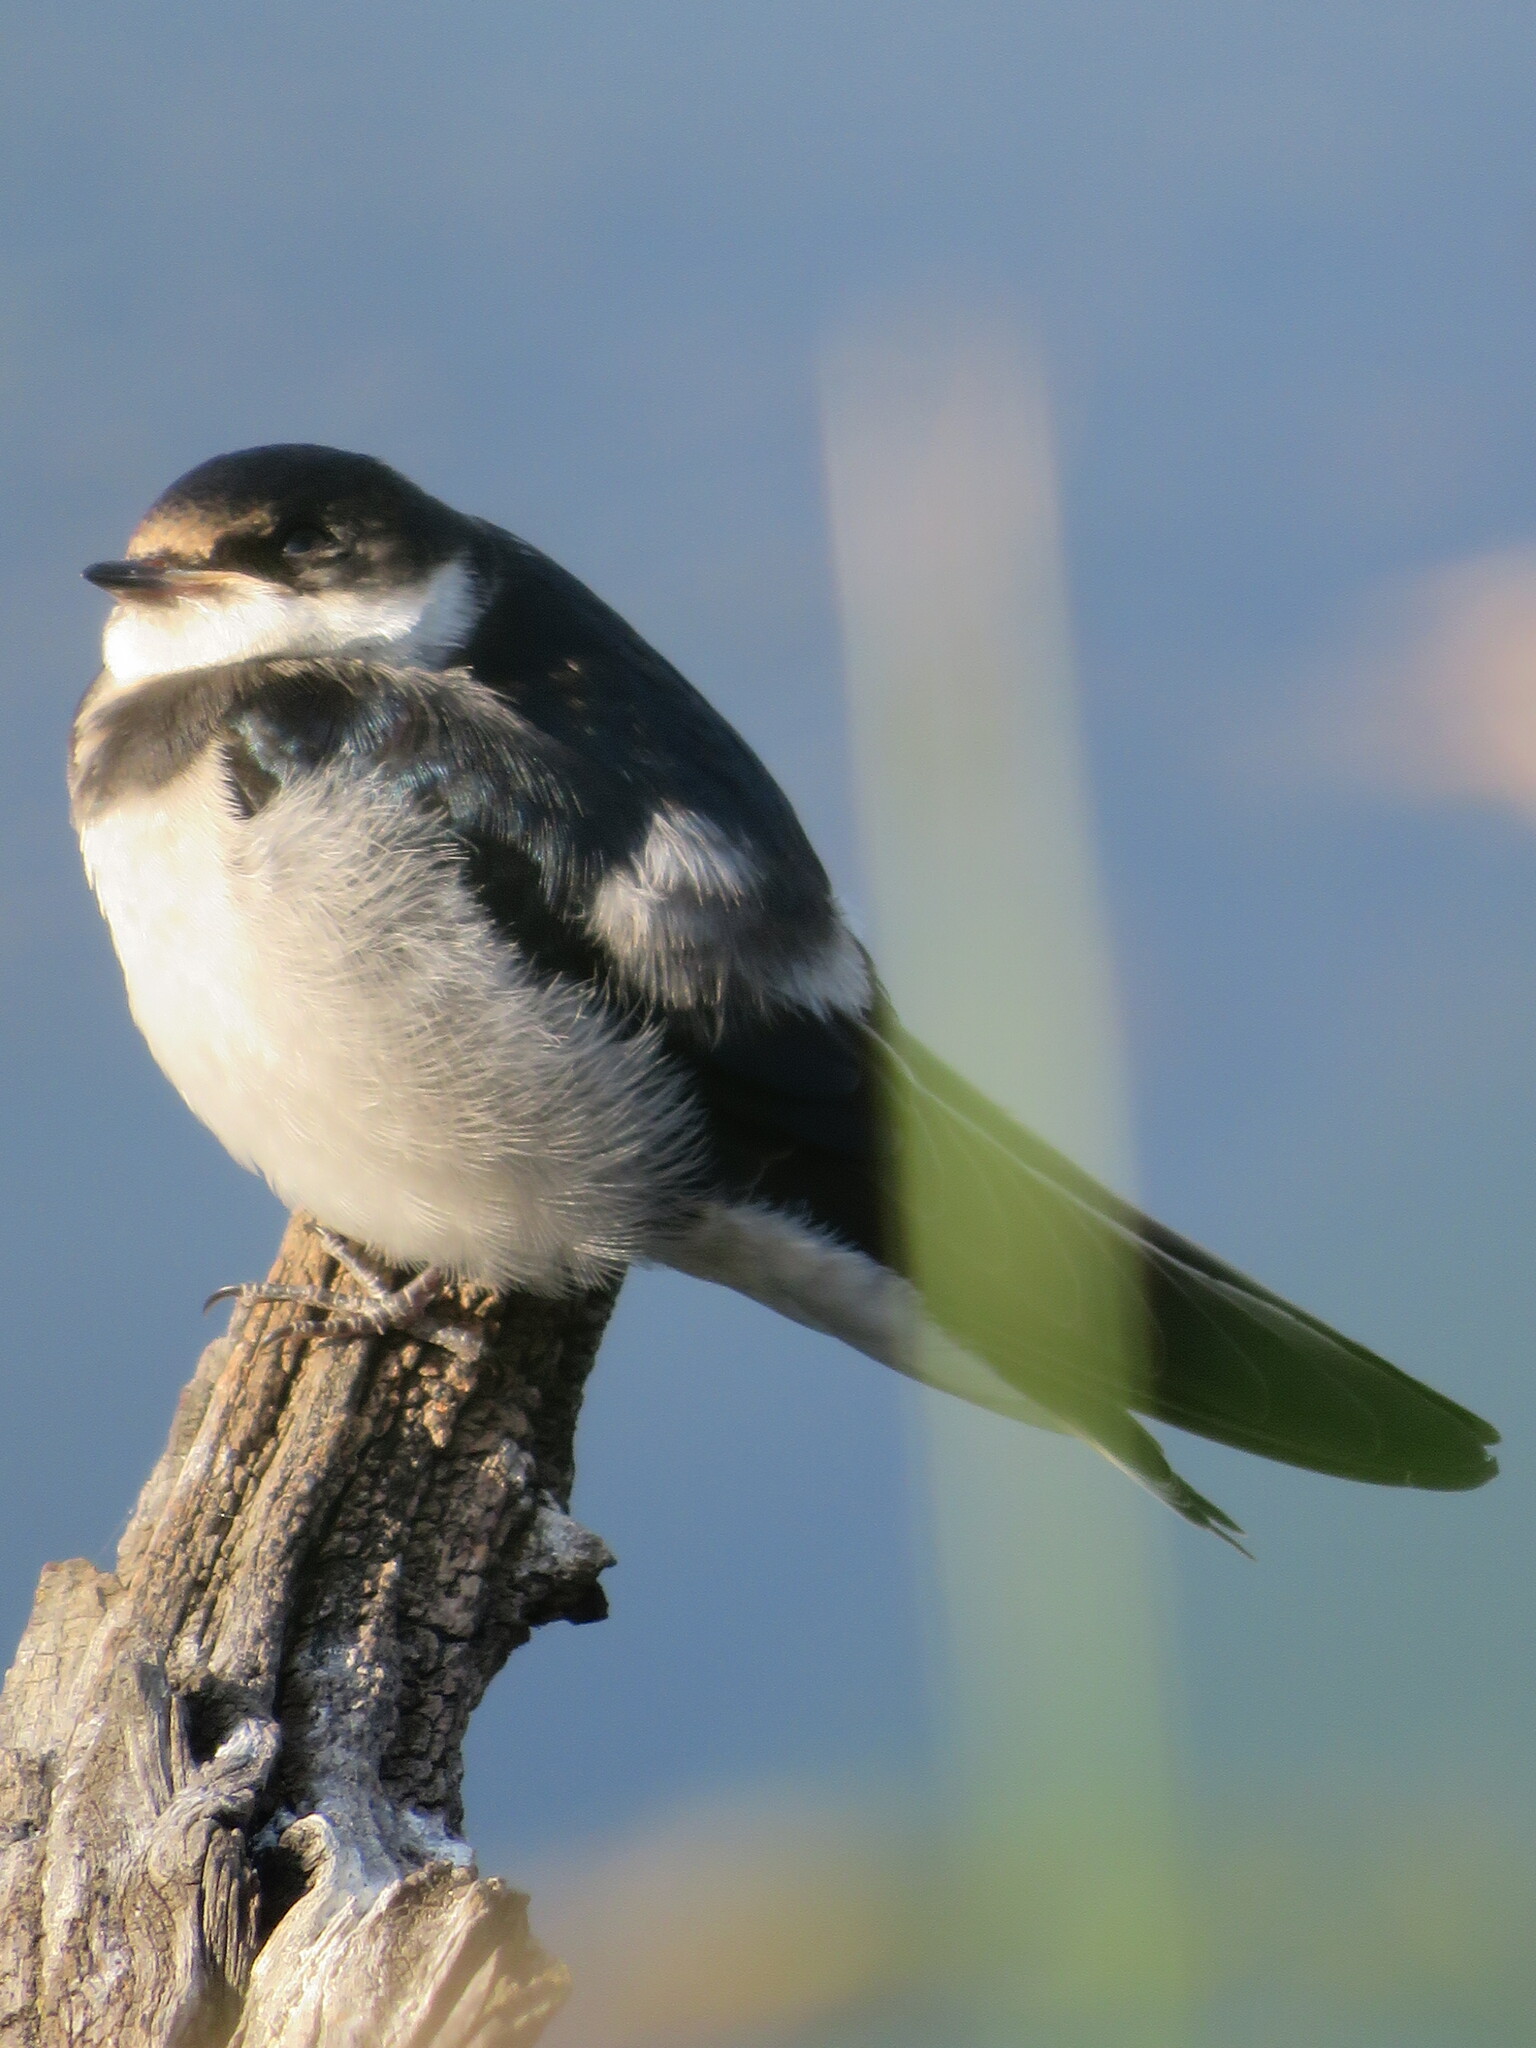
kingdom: Animalia
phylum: Chordata
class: Aves
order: Passeriformes
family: Hirundinidae
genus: Hirundo
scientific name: Hirundo albigularis
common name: White-throated swallow
